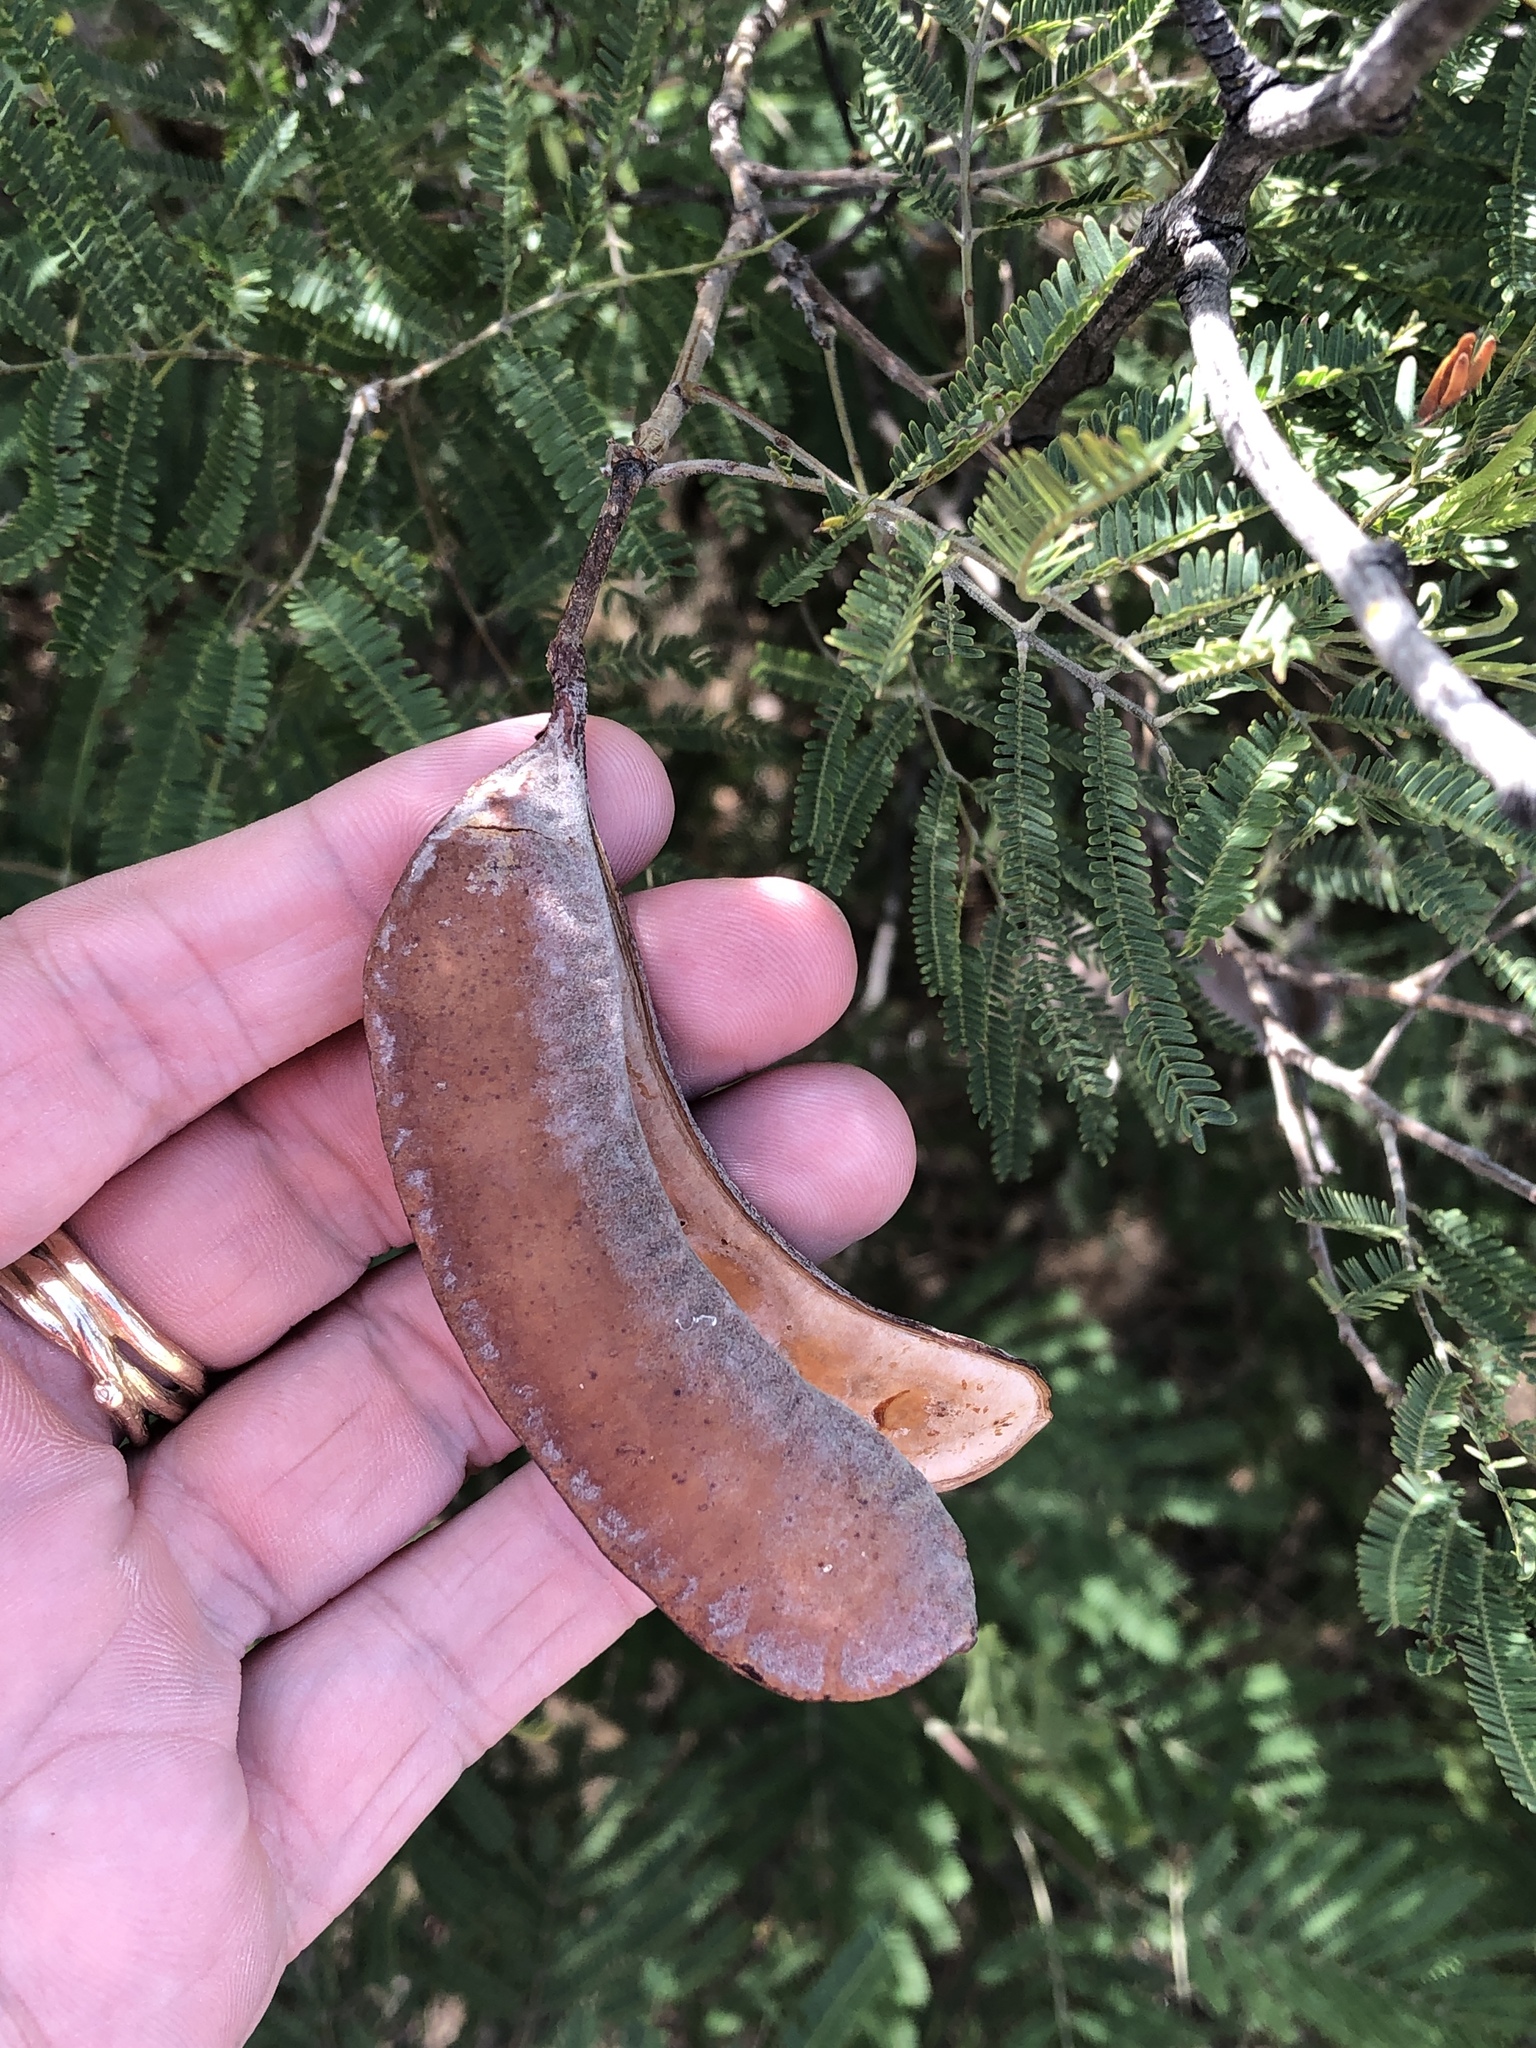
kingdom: Plantae
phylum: Tracheophyta
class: Magnoliopsida
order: Fabales
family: Fabaceae
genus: Senegalia
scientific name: Senegalia berlandieri
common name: Berlandier acacia
